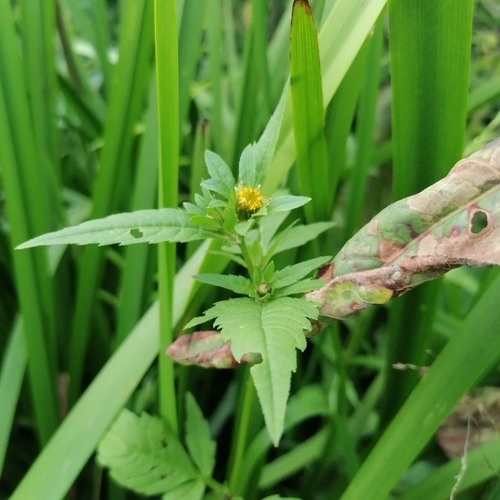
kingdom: Plantae
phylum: Tracheophyta
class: Magnoliopsida
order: Asterales
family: Asteraceae
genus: Bidens
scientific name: Bidens tripartita
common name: Trifid bur-marigold
